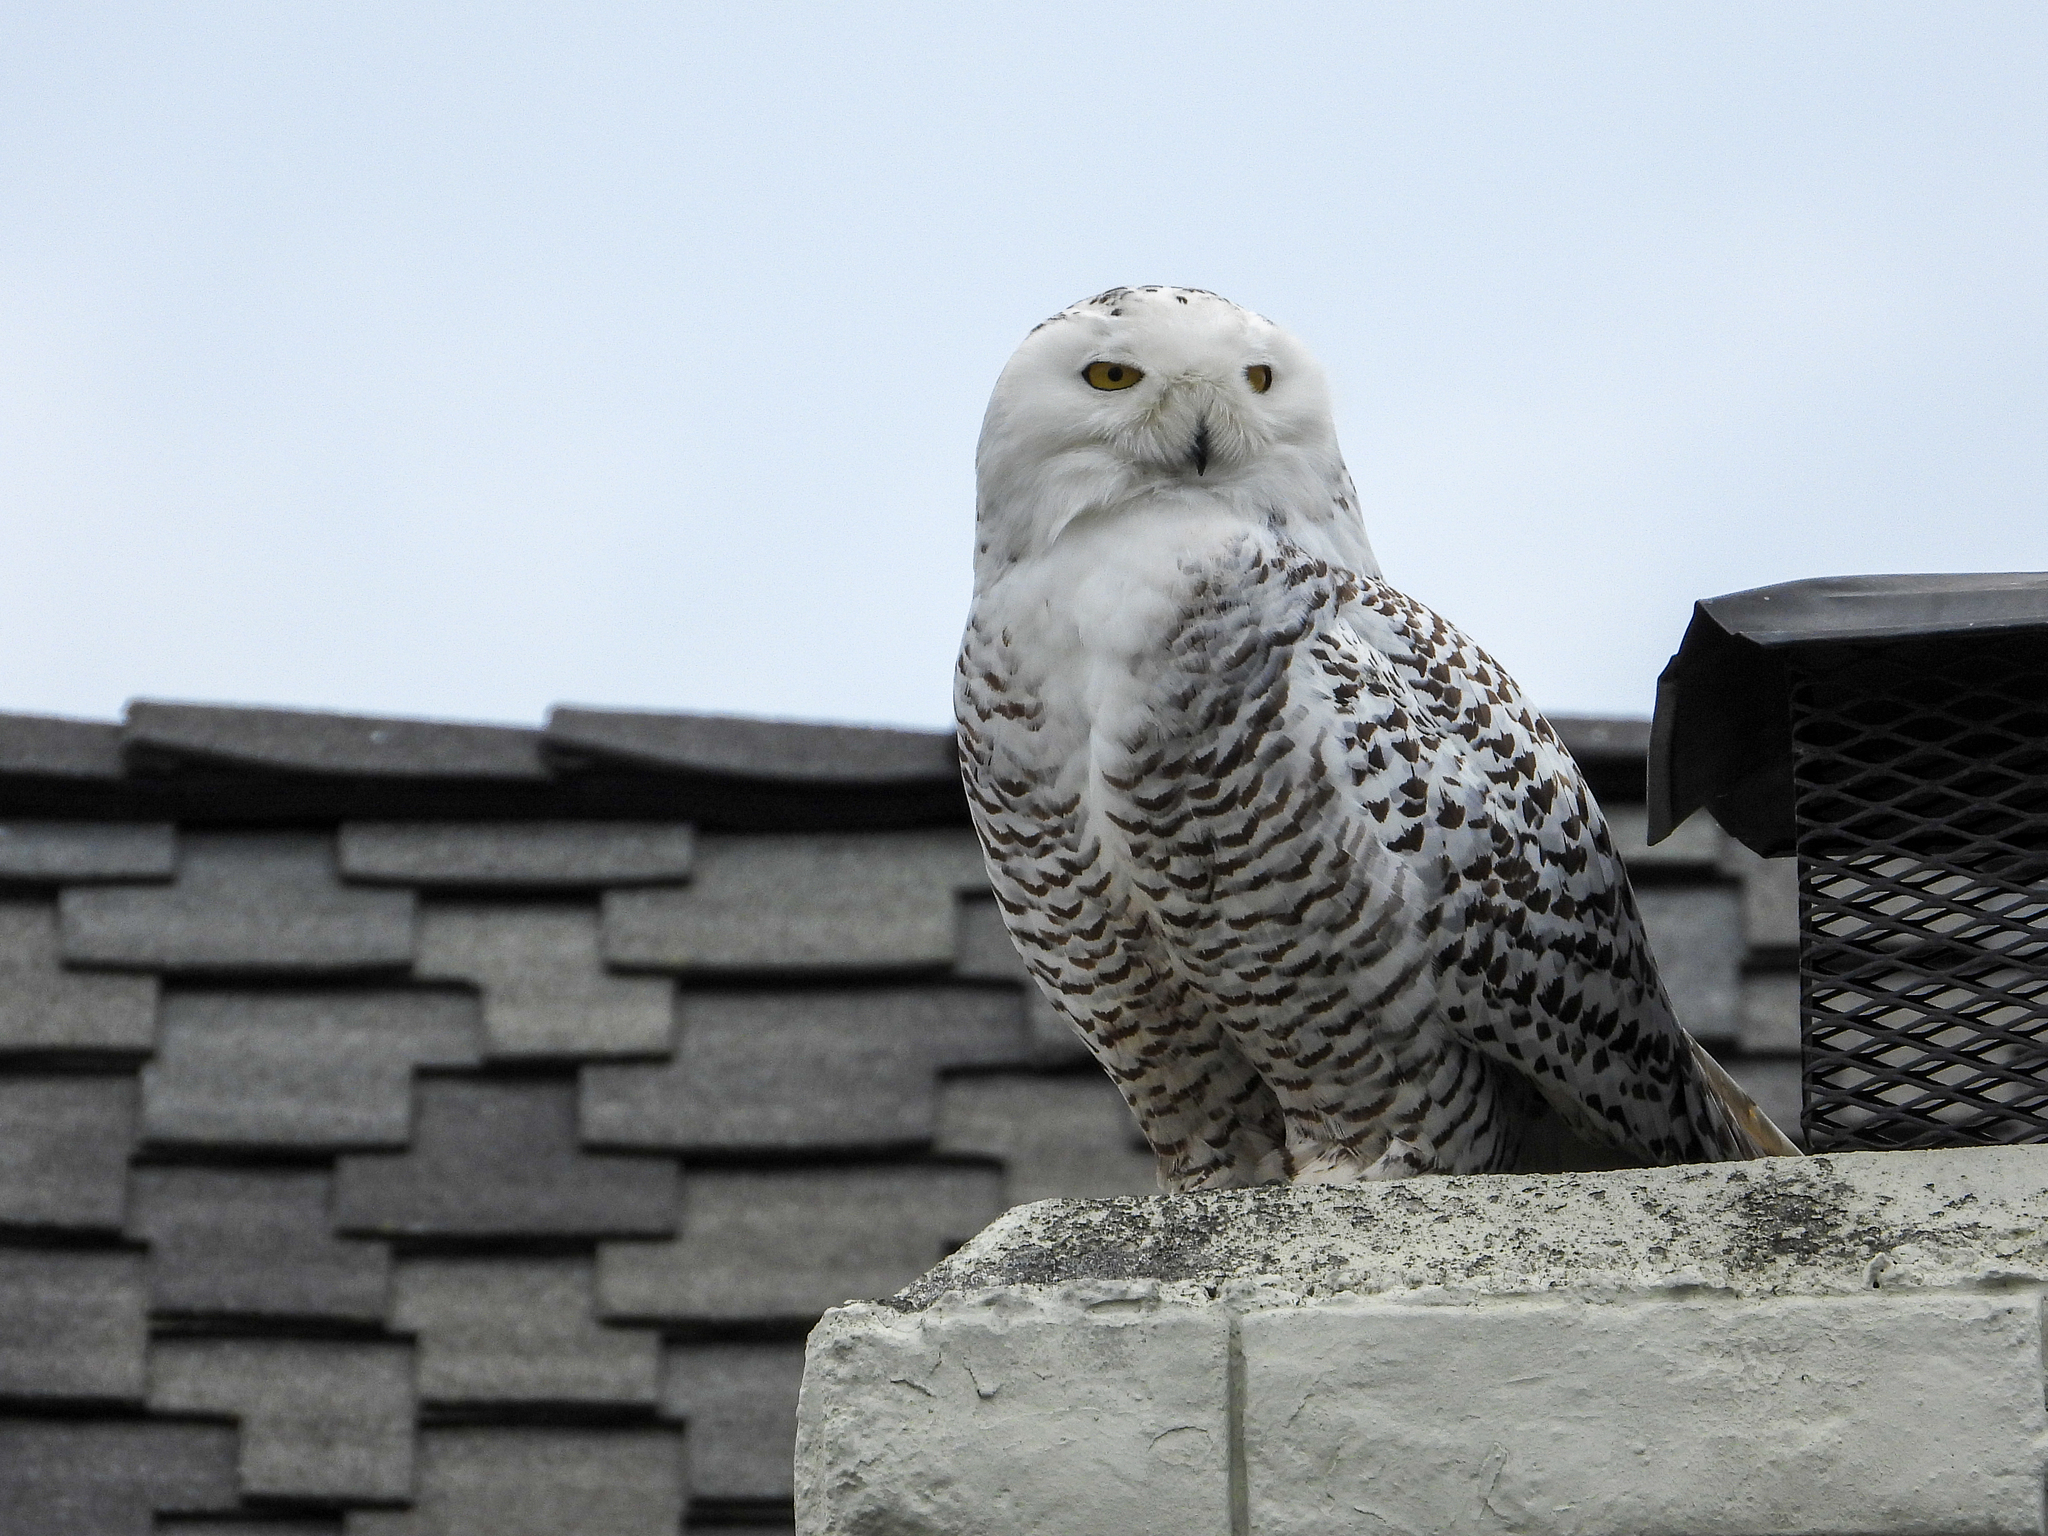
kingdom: Animalia
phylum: Chordata
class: Aves
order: Strigiformes
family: Strigidae
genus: Bubo
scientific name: Bubo scandiacus
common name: Snowy owl
